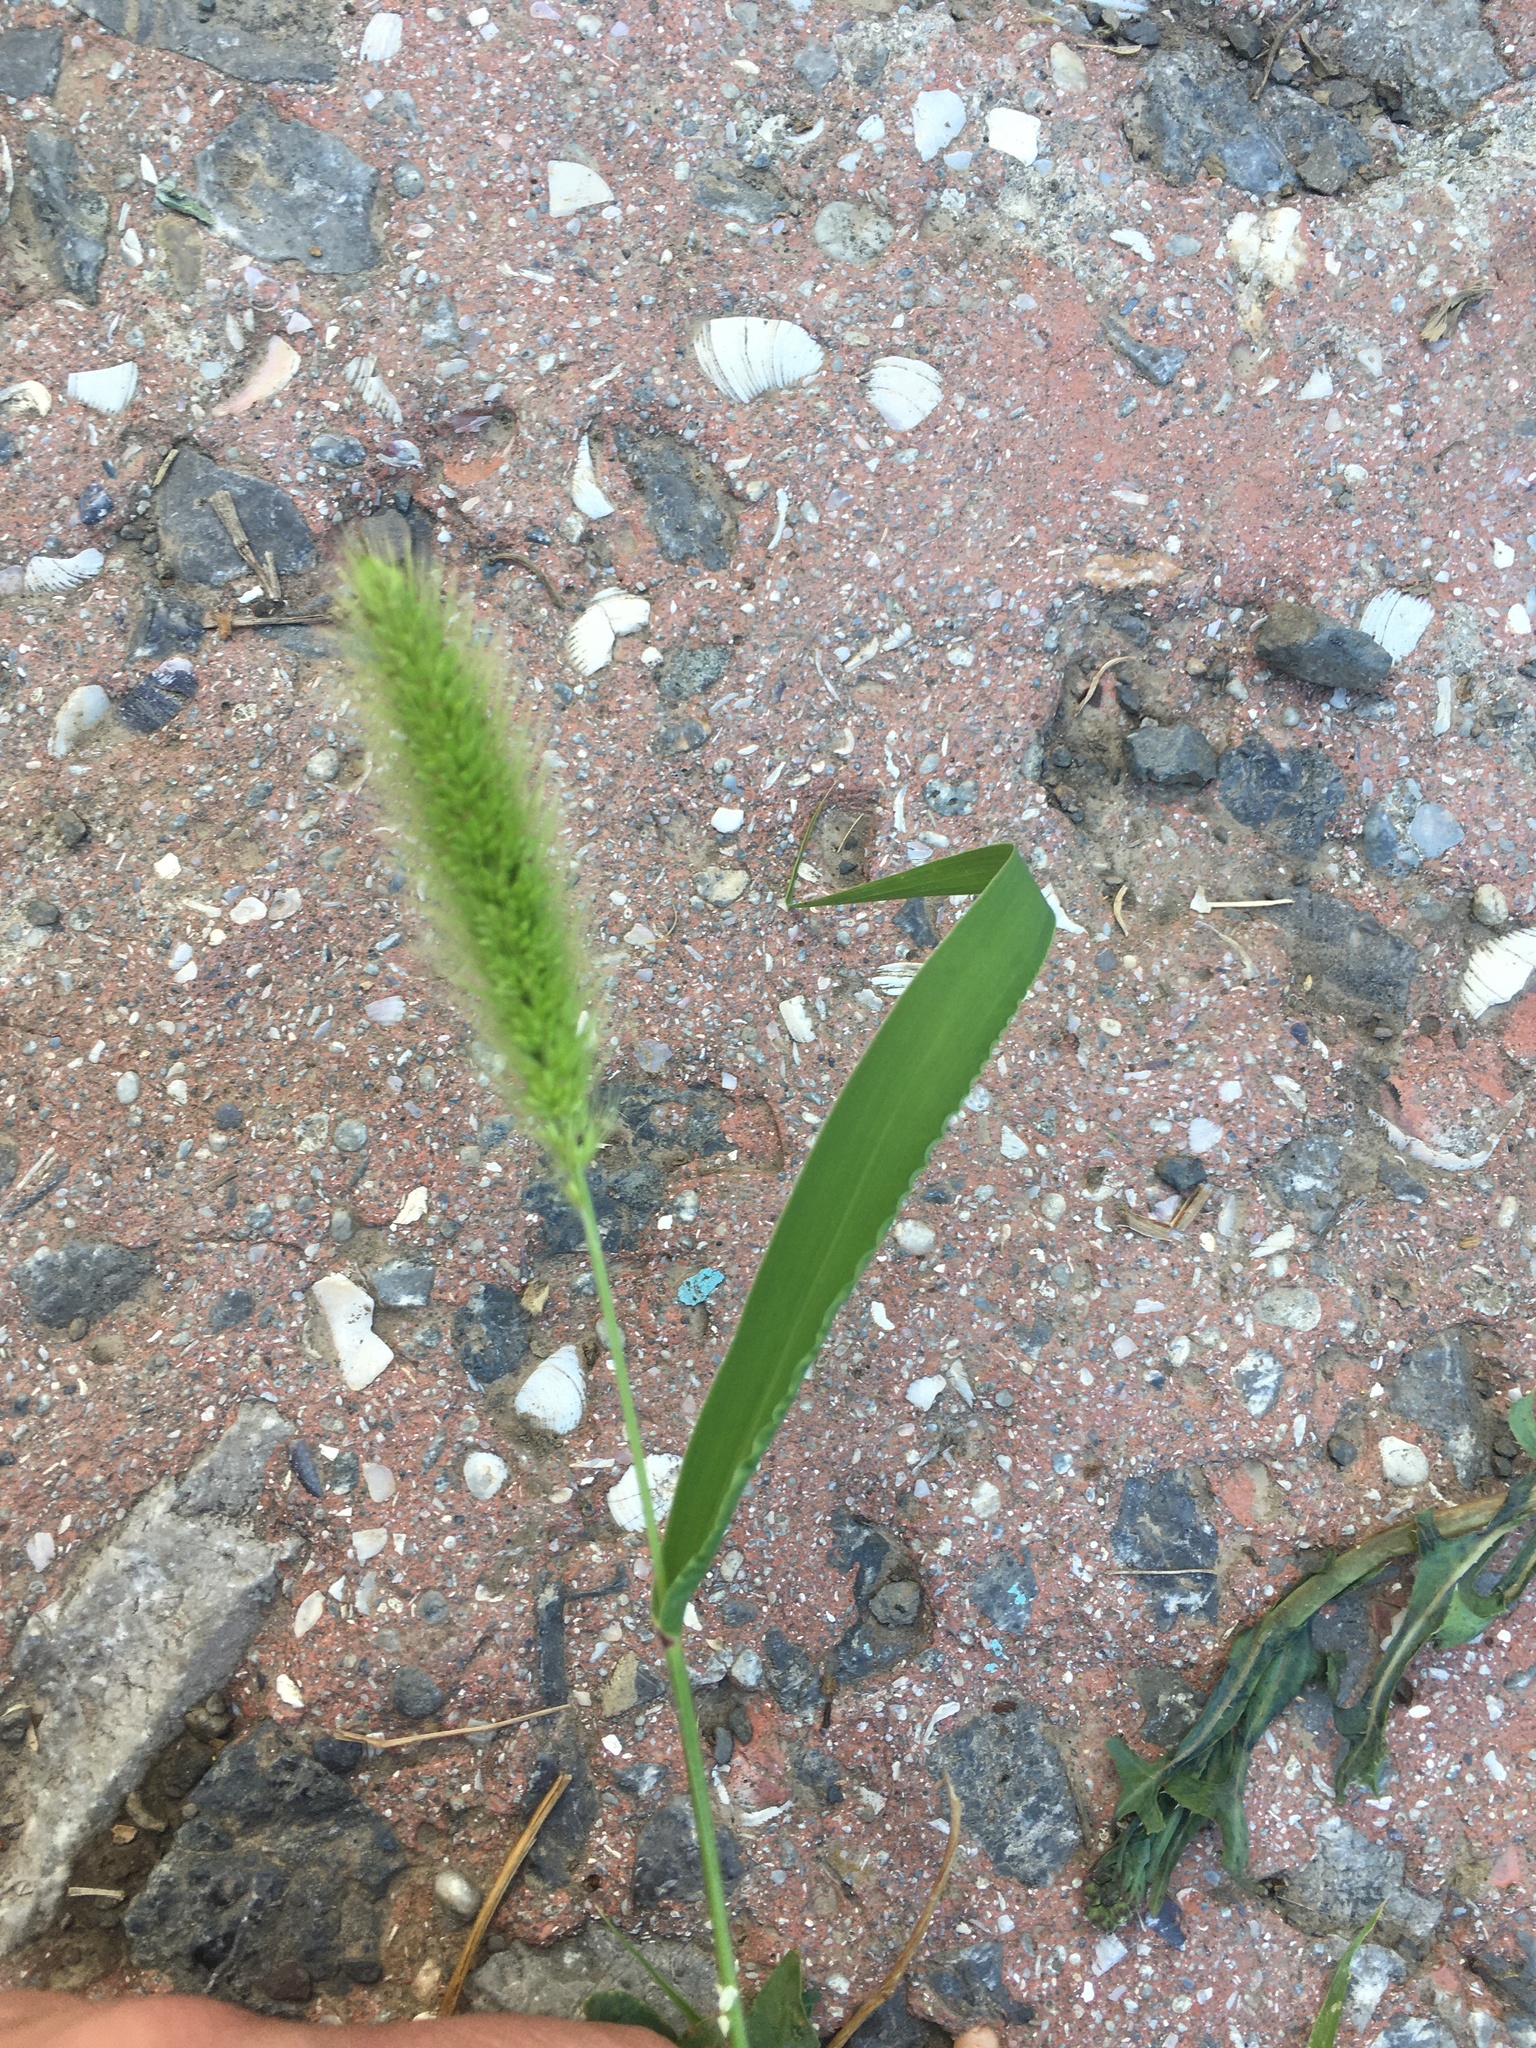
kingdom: Plantae
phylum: Tracheophyta
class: Liliopsida
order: Poales
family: Poaceae
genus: Setaria
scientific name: Setaria viridis
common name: Green bristlegrass
